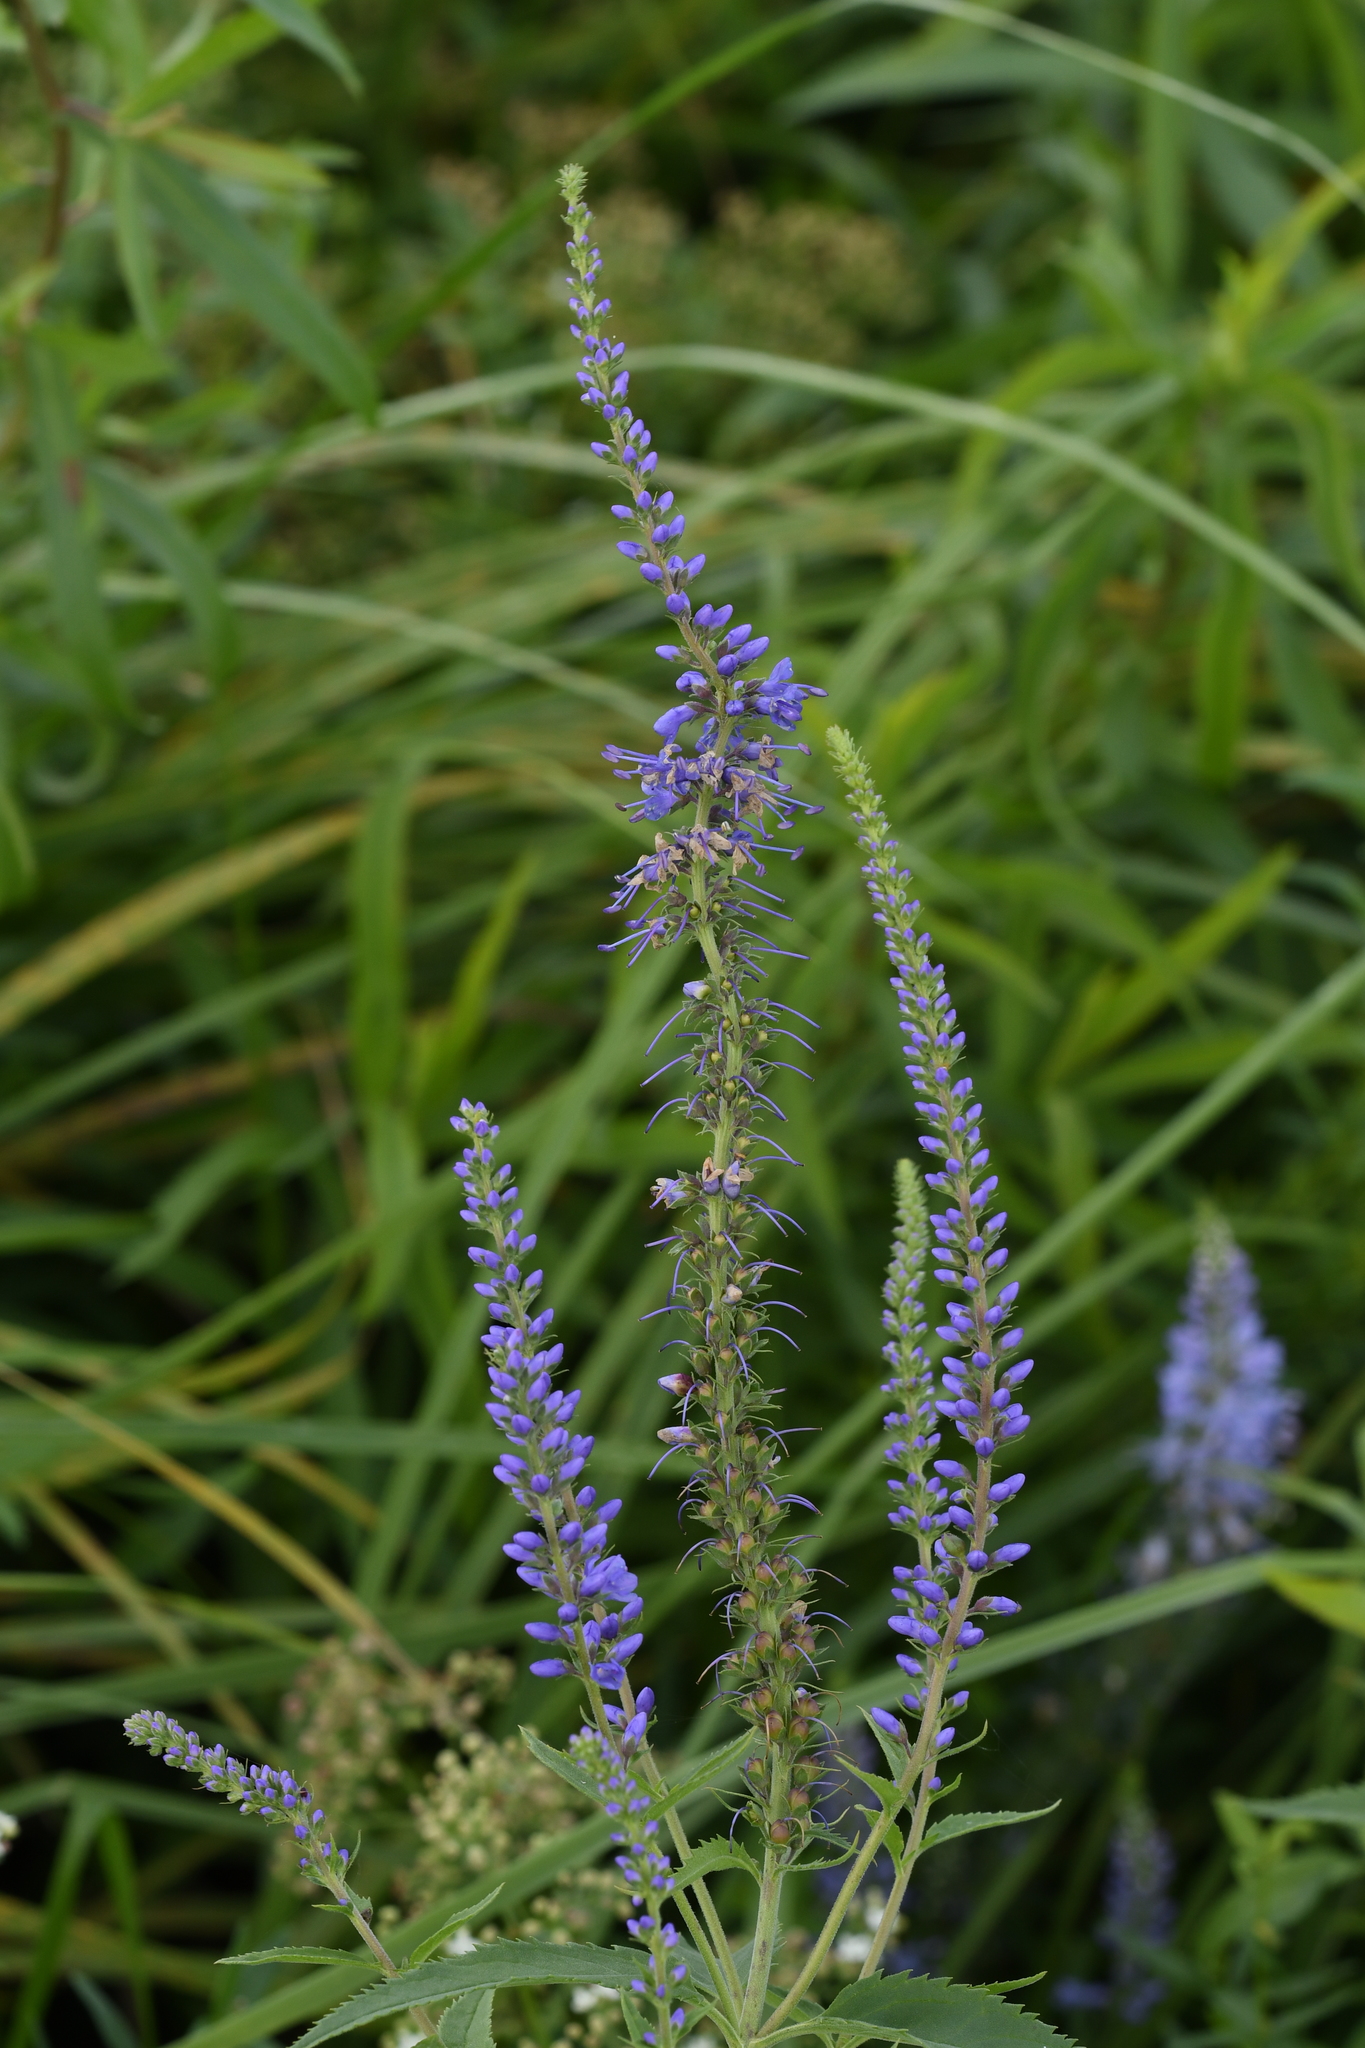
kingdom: Plantae
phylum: Tracheophyta
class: Magnoliopsida
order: Lamiales
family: Plantaginaceae
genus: Veronica
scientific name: Veronica longifolia
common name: Garden speedwell
